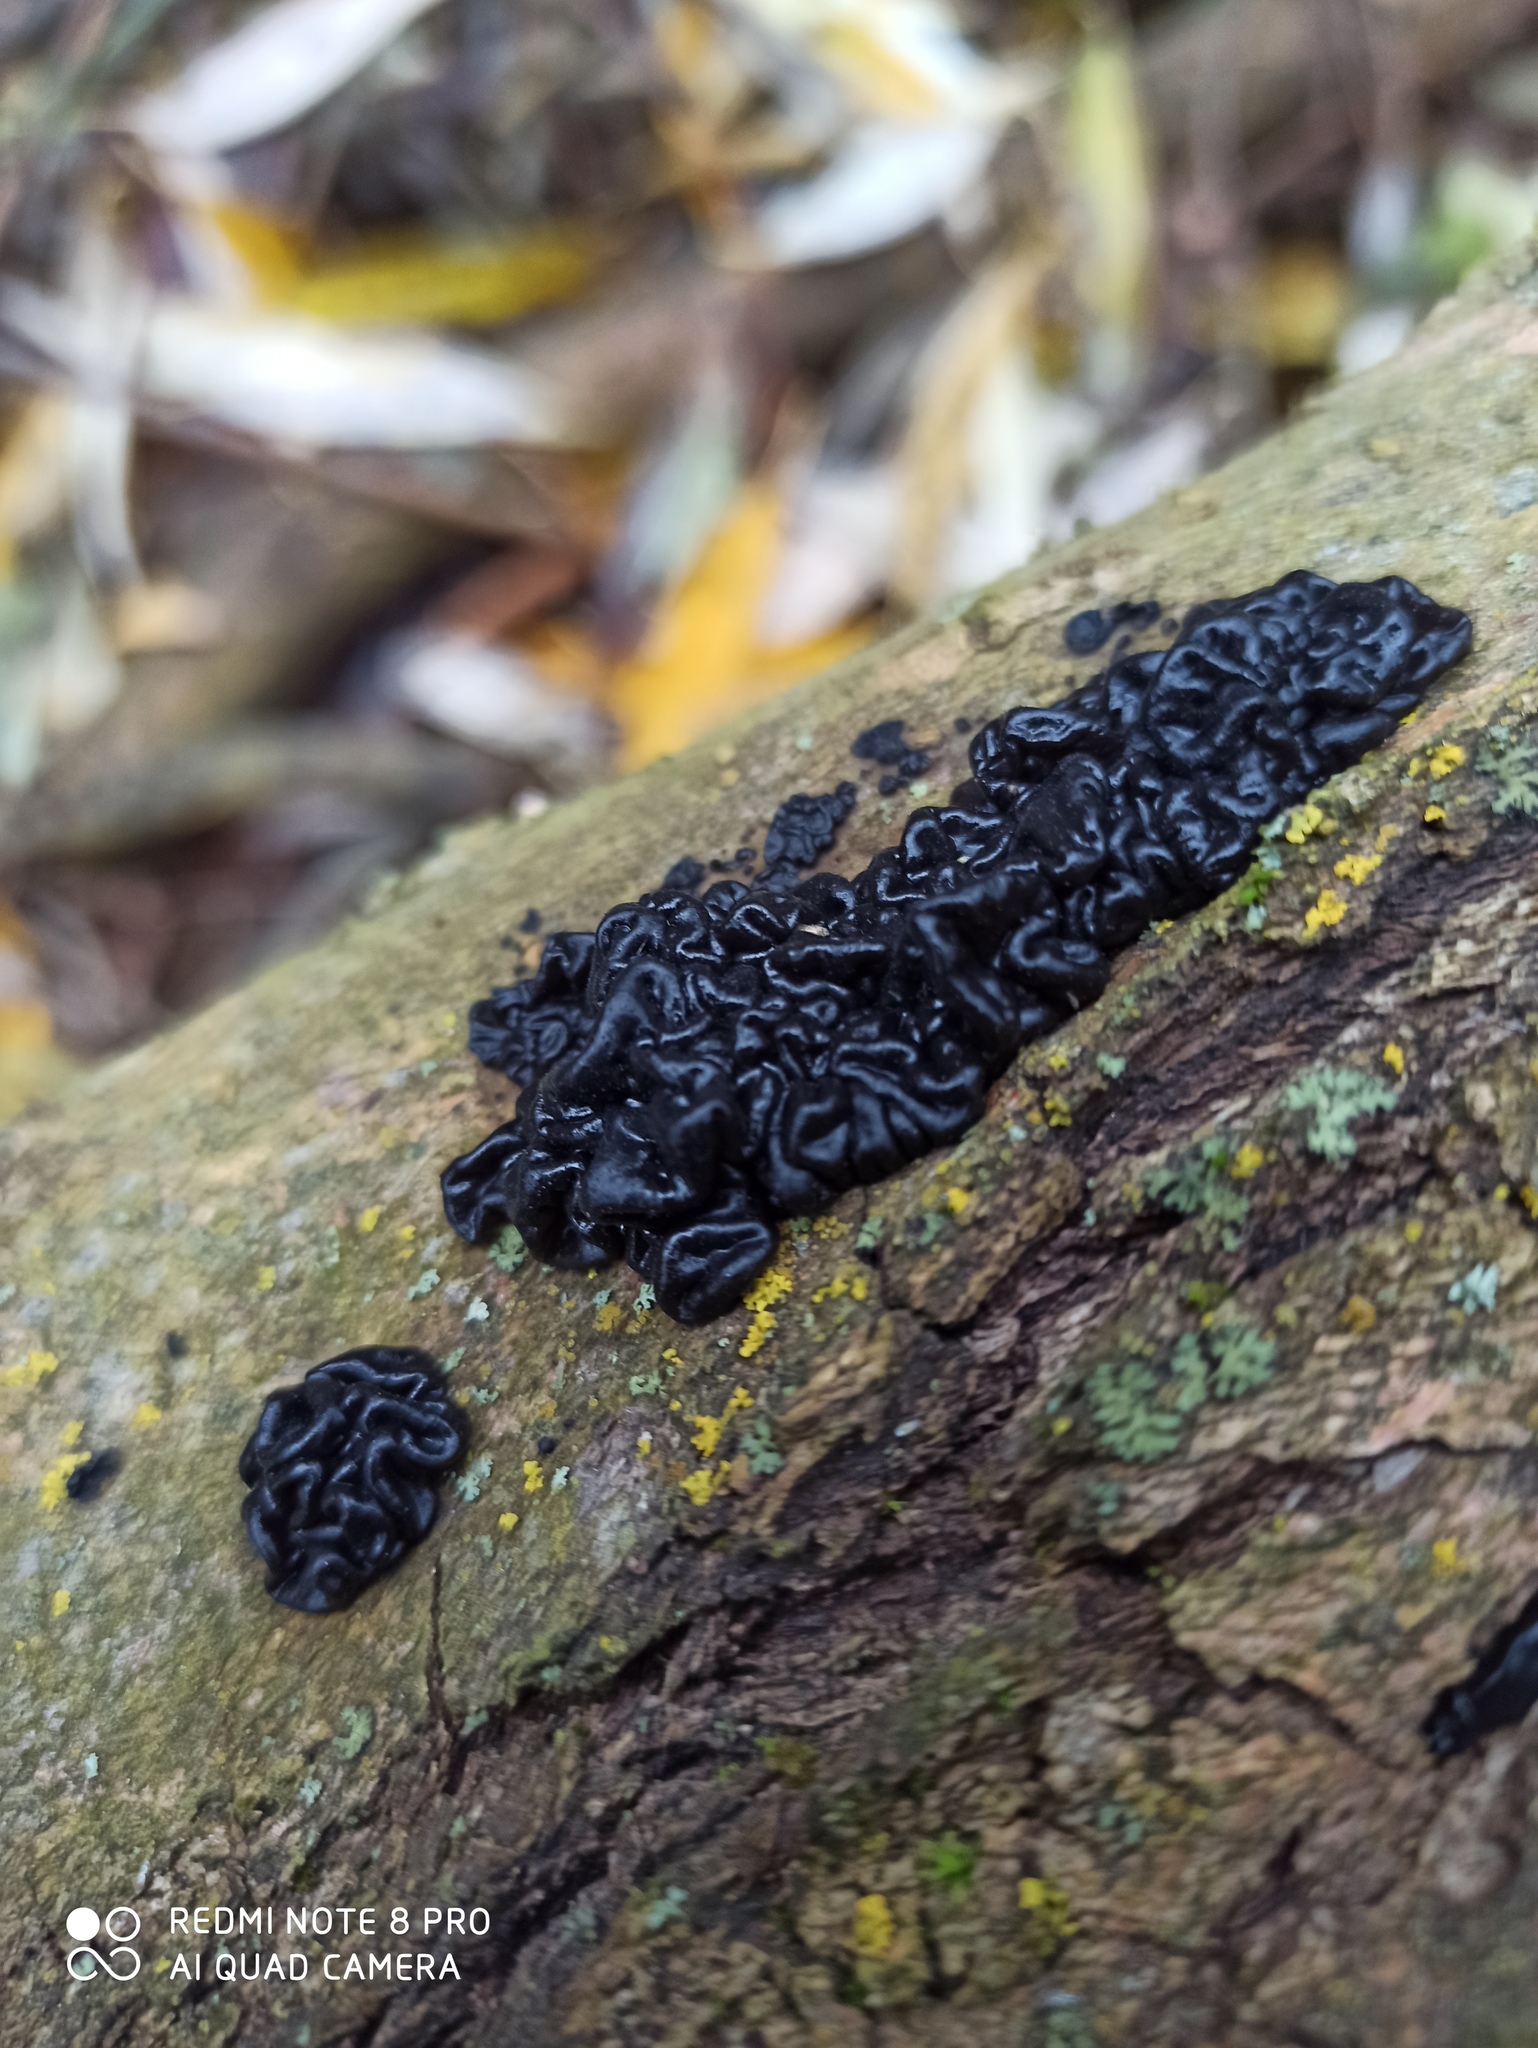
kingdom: Fungi
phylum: Basidiomycota
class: Agaricomycetes
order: Auriculariales
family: Auriculariaceae
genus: Exidia
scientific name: Exidia nigricans
